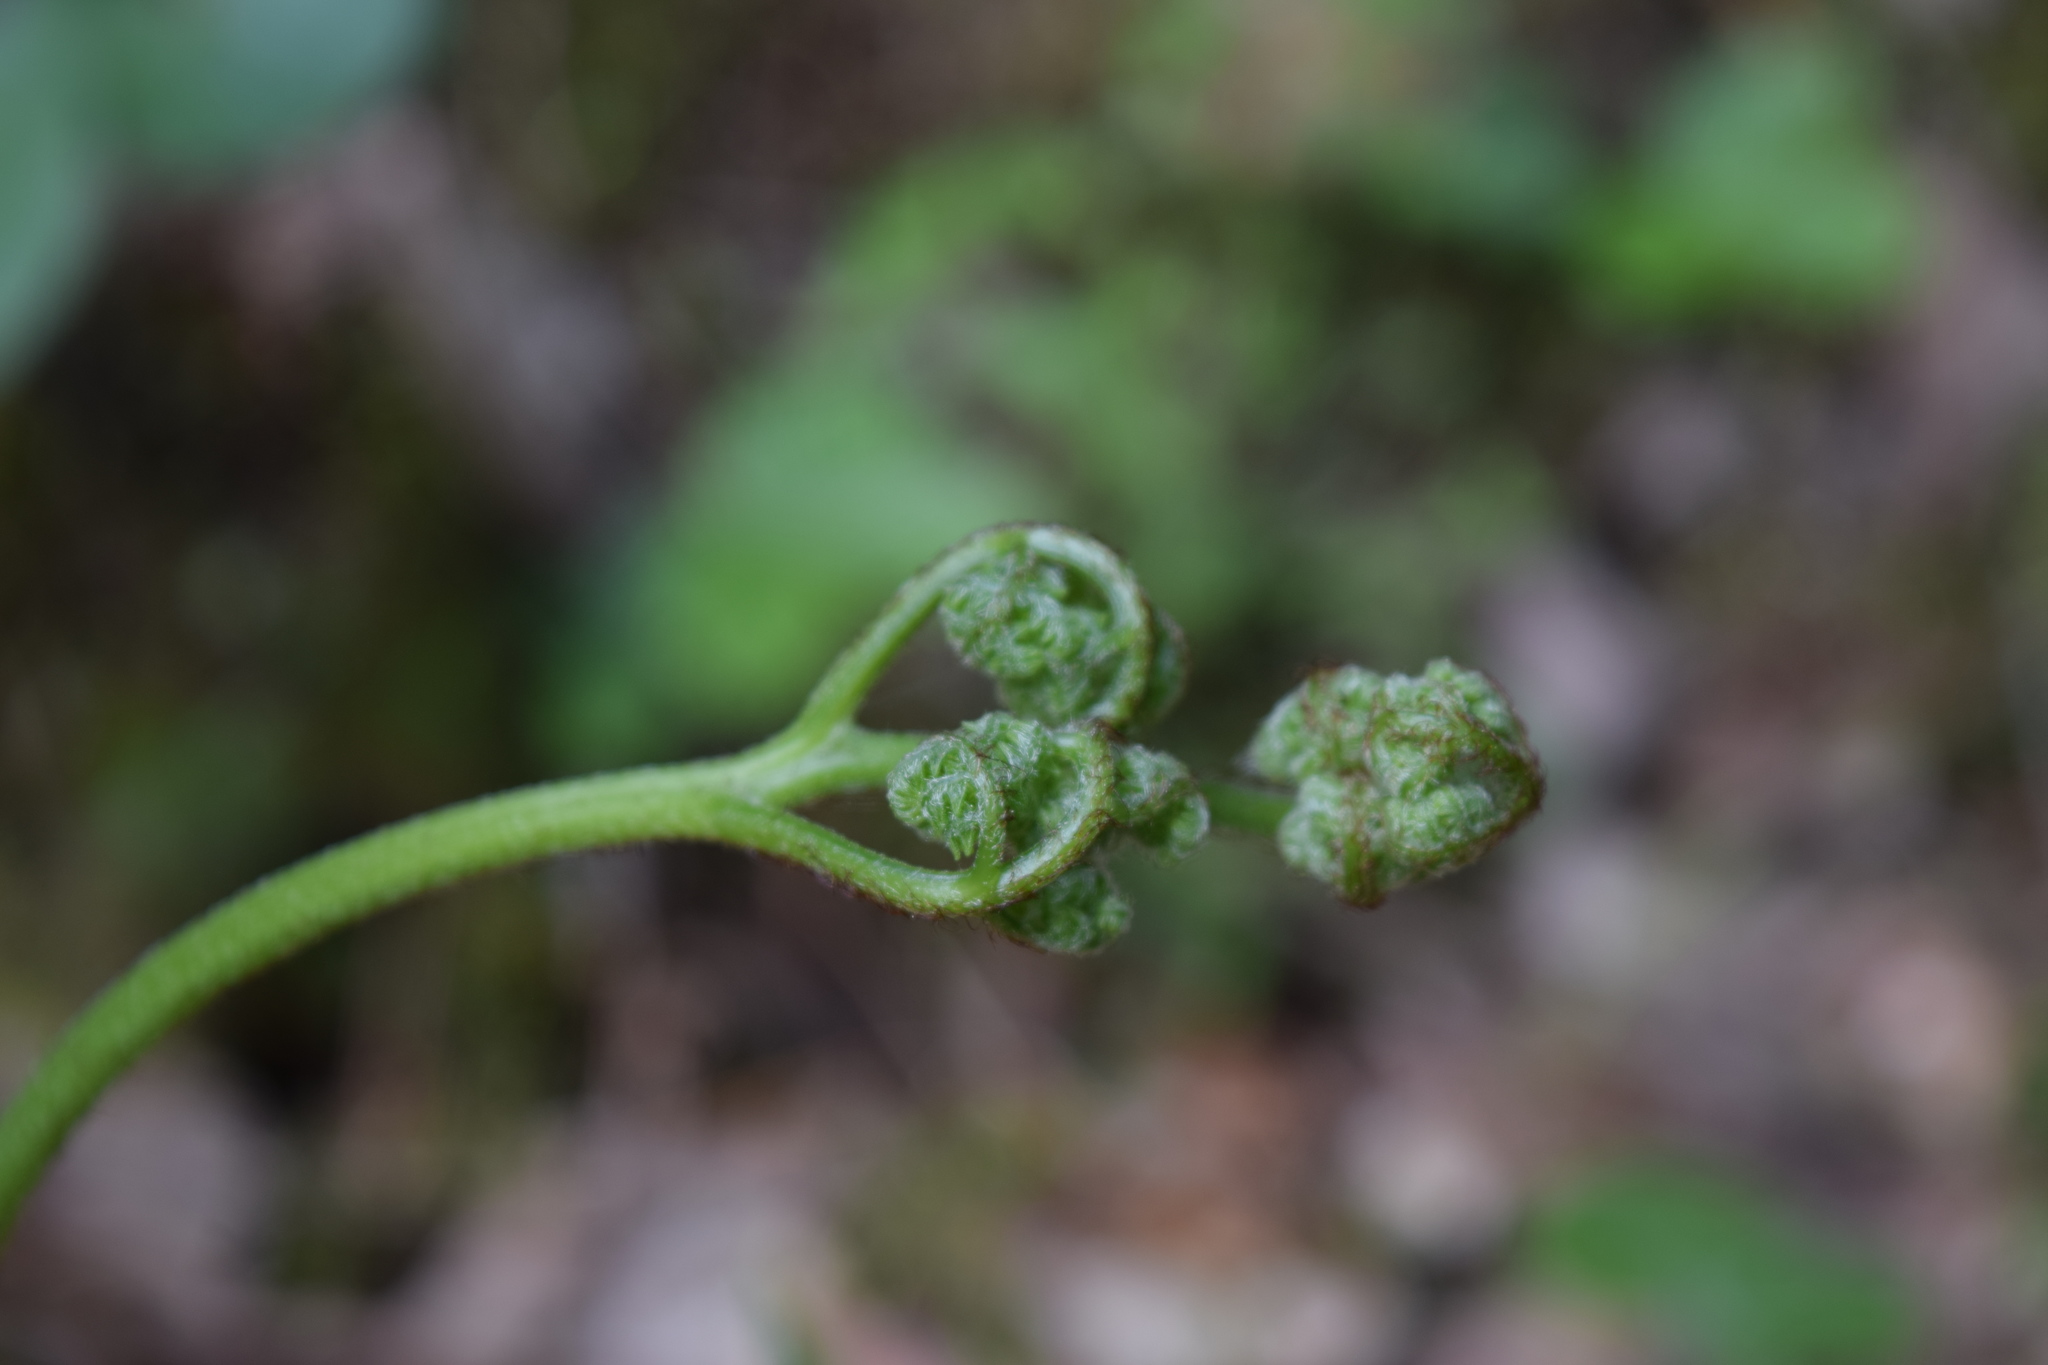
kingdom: Plantae
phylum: Tracheophyta
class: Polypodiopsida
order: Polypodiales
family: Dennstaedtiaceae
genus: Pteridium
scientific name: Pteridium aquilinum
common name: Bracken
